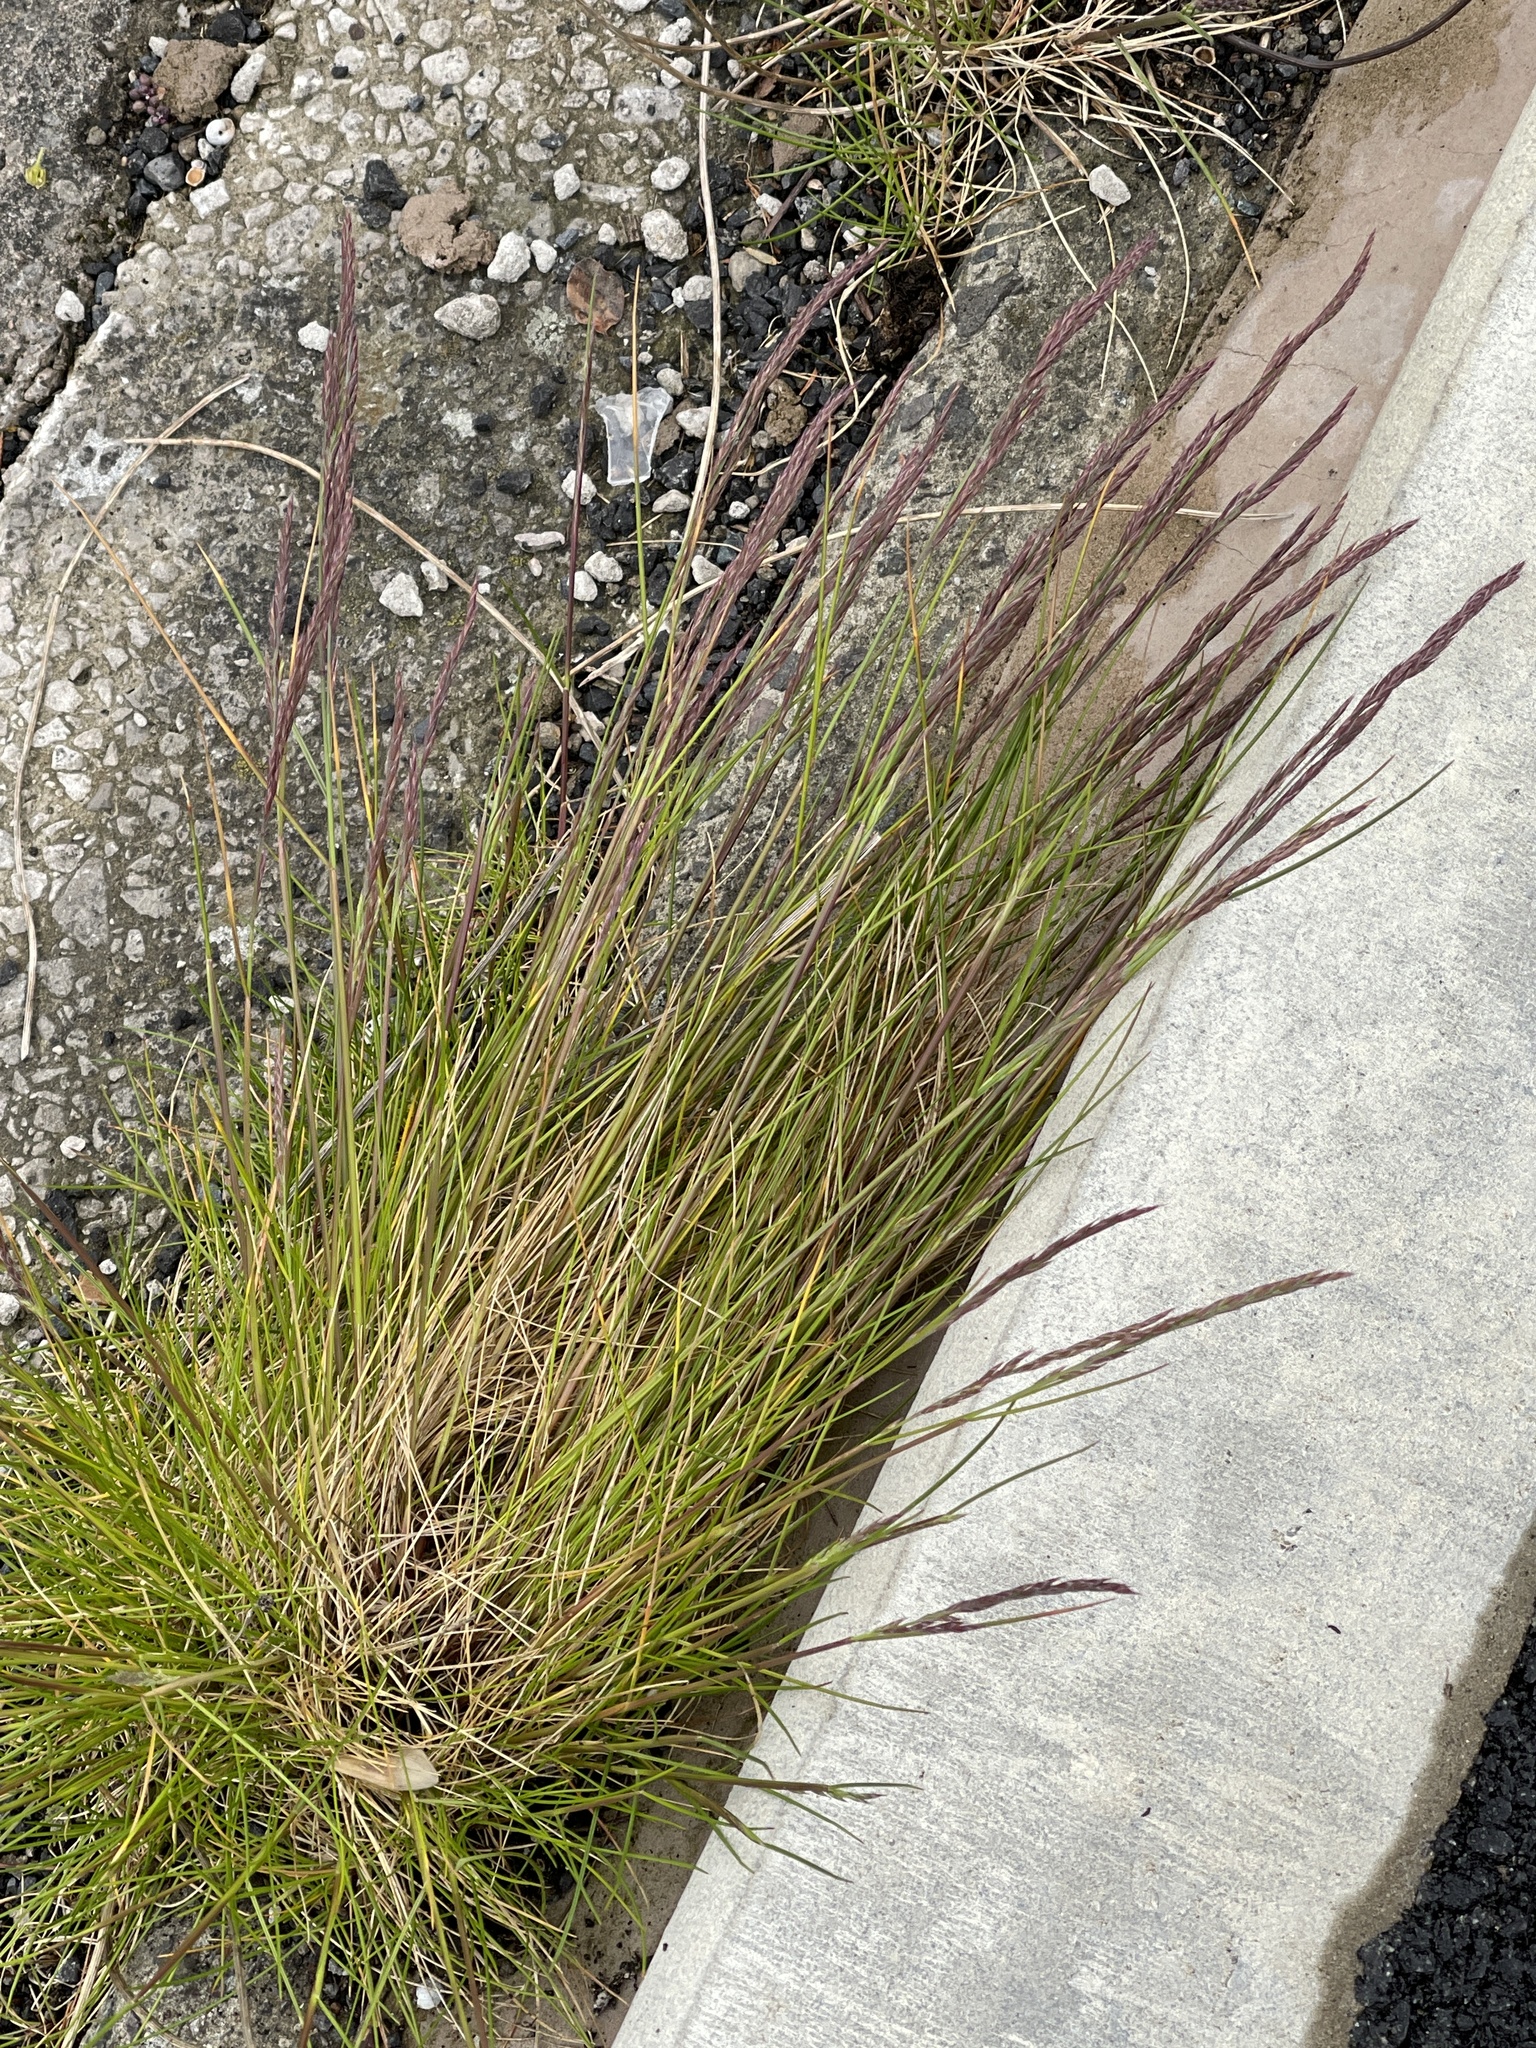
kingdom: Plantae
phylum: Tracheophyta
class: Liliopsida
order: Poales
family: Poaceae
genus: Festuca
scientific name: Festuca rubra
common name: Red fescue
